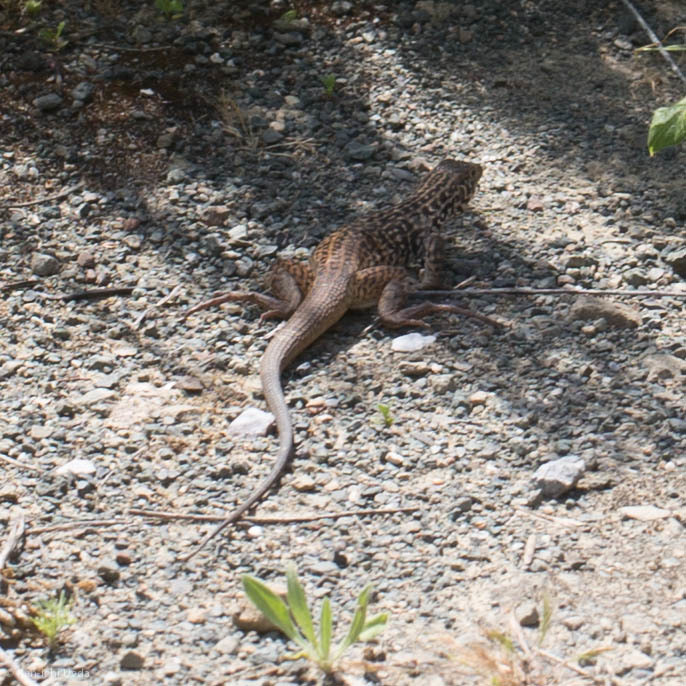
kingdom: Animalia
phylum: Chordata
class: Squamata
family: Teiidae
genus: Aspidoscelis
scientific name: Aspidoscelis tigris
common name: Tiger whiptail
